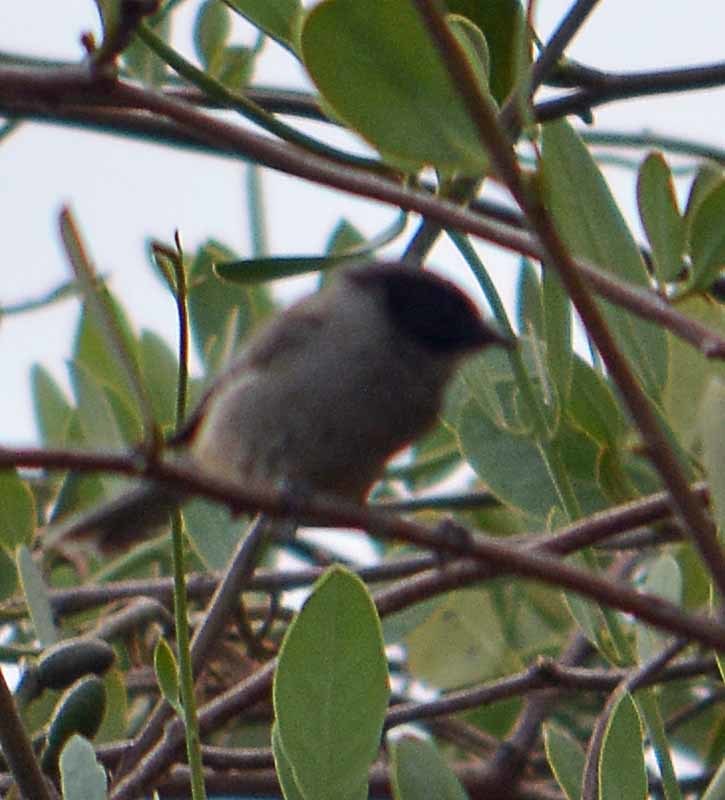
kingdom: Animalia
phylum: Chordata
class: Aves
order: Passeriformes
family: Aegithalidae
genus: Psaltriparus
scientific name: Psaltriparus minimus
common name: American bushtit
